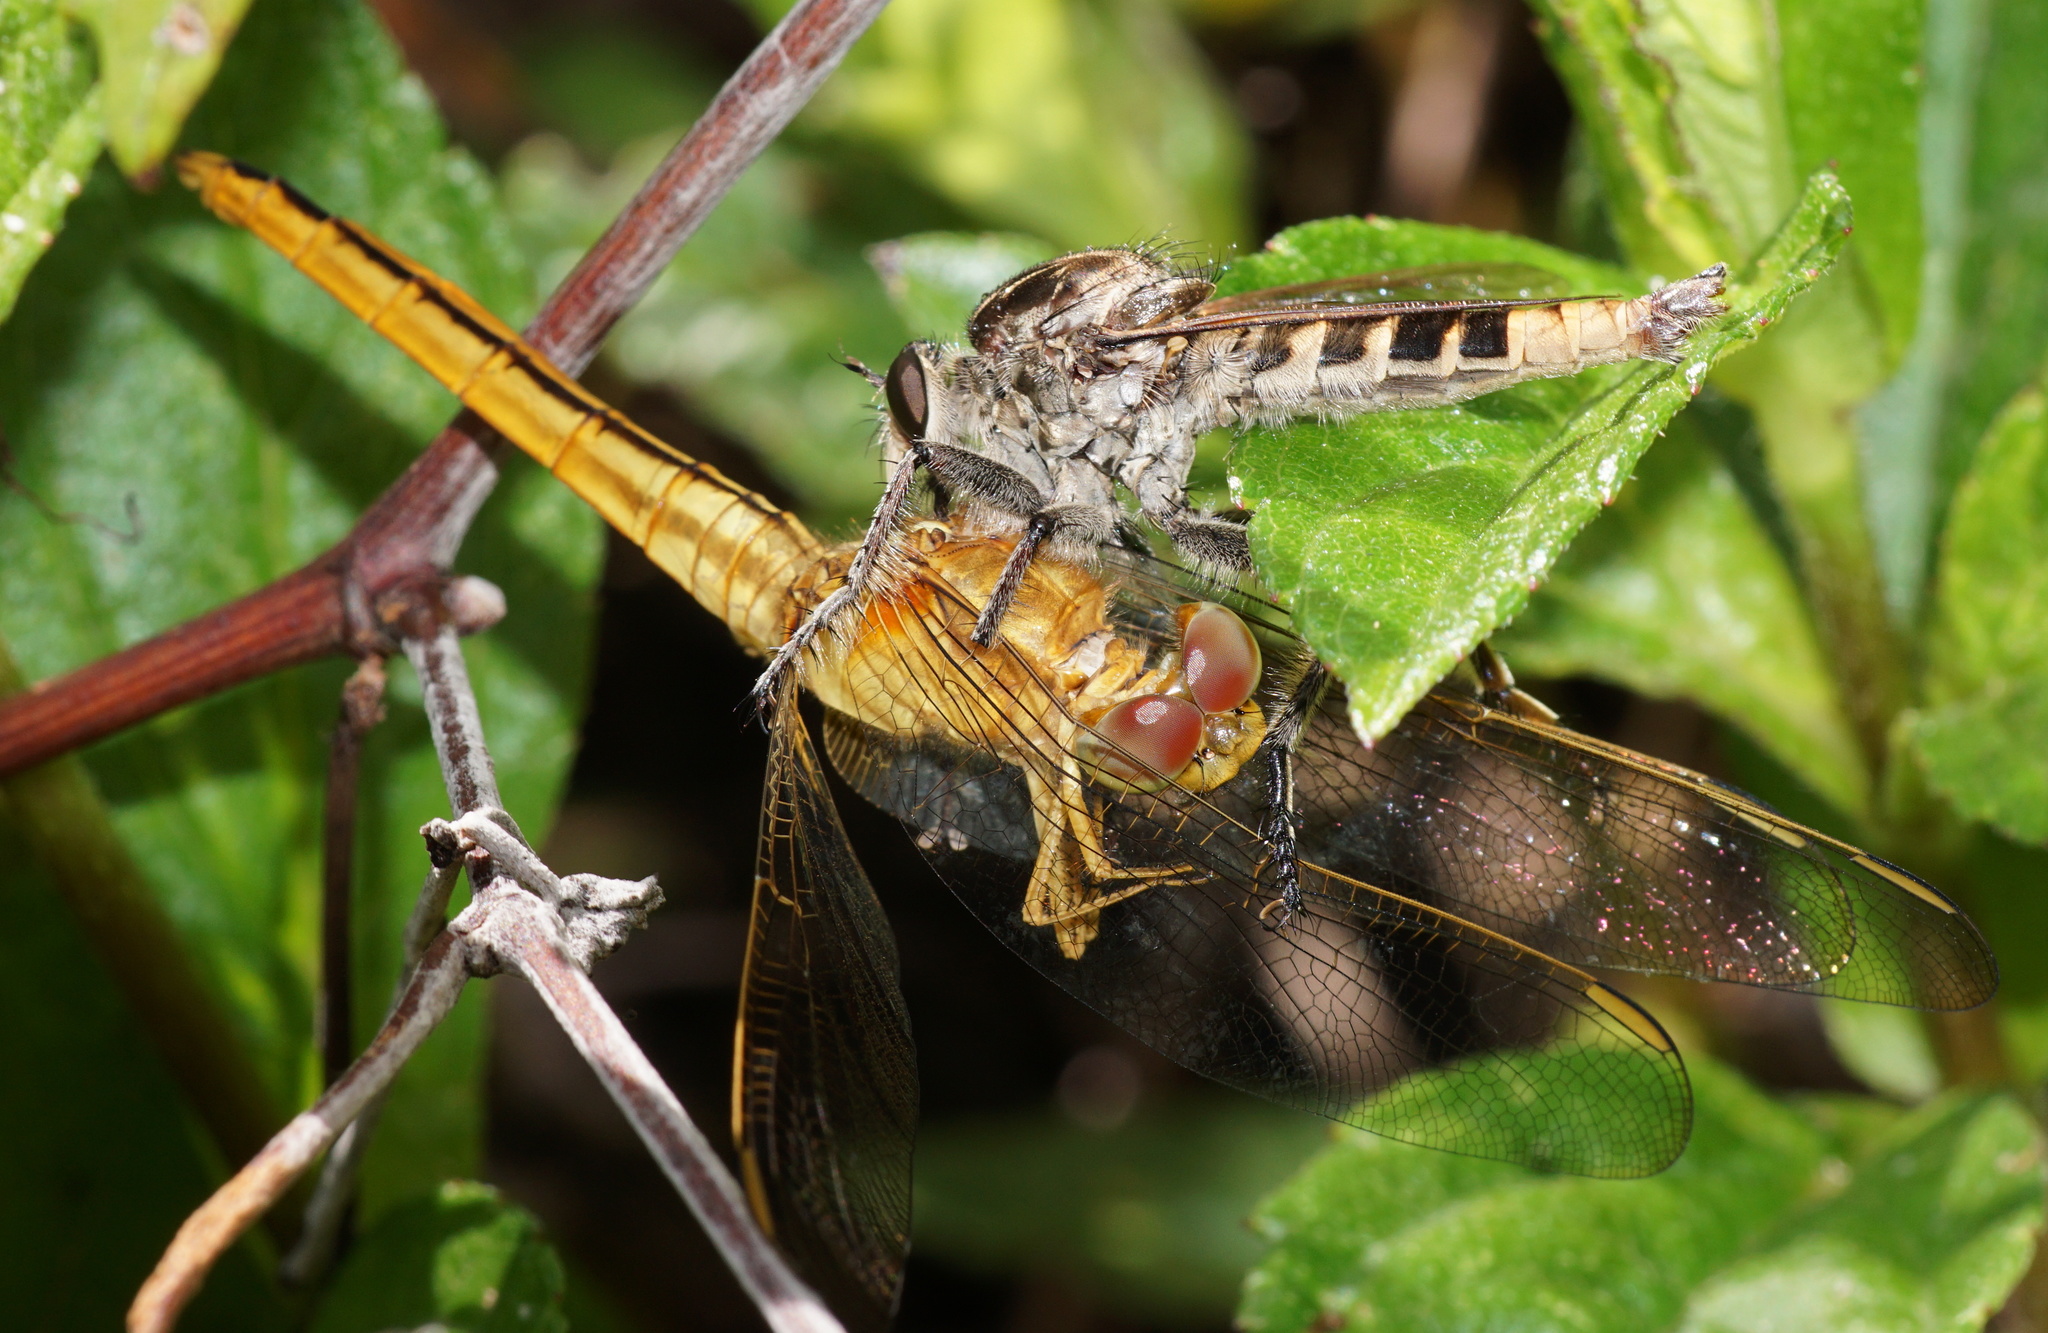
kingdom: Animalia
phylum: Arthropoda
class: Insecta
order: Diptera
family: Asilidae
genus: Triorla
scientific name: Triorla interrupta
